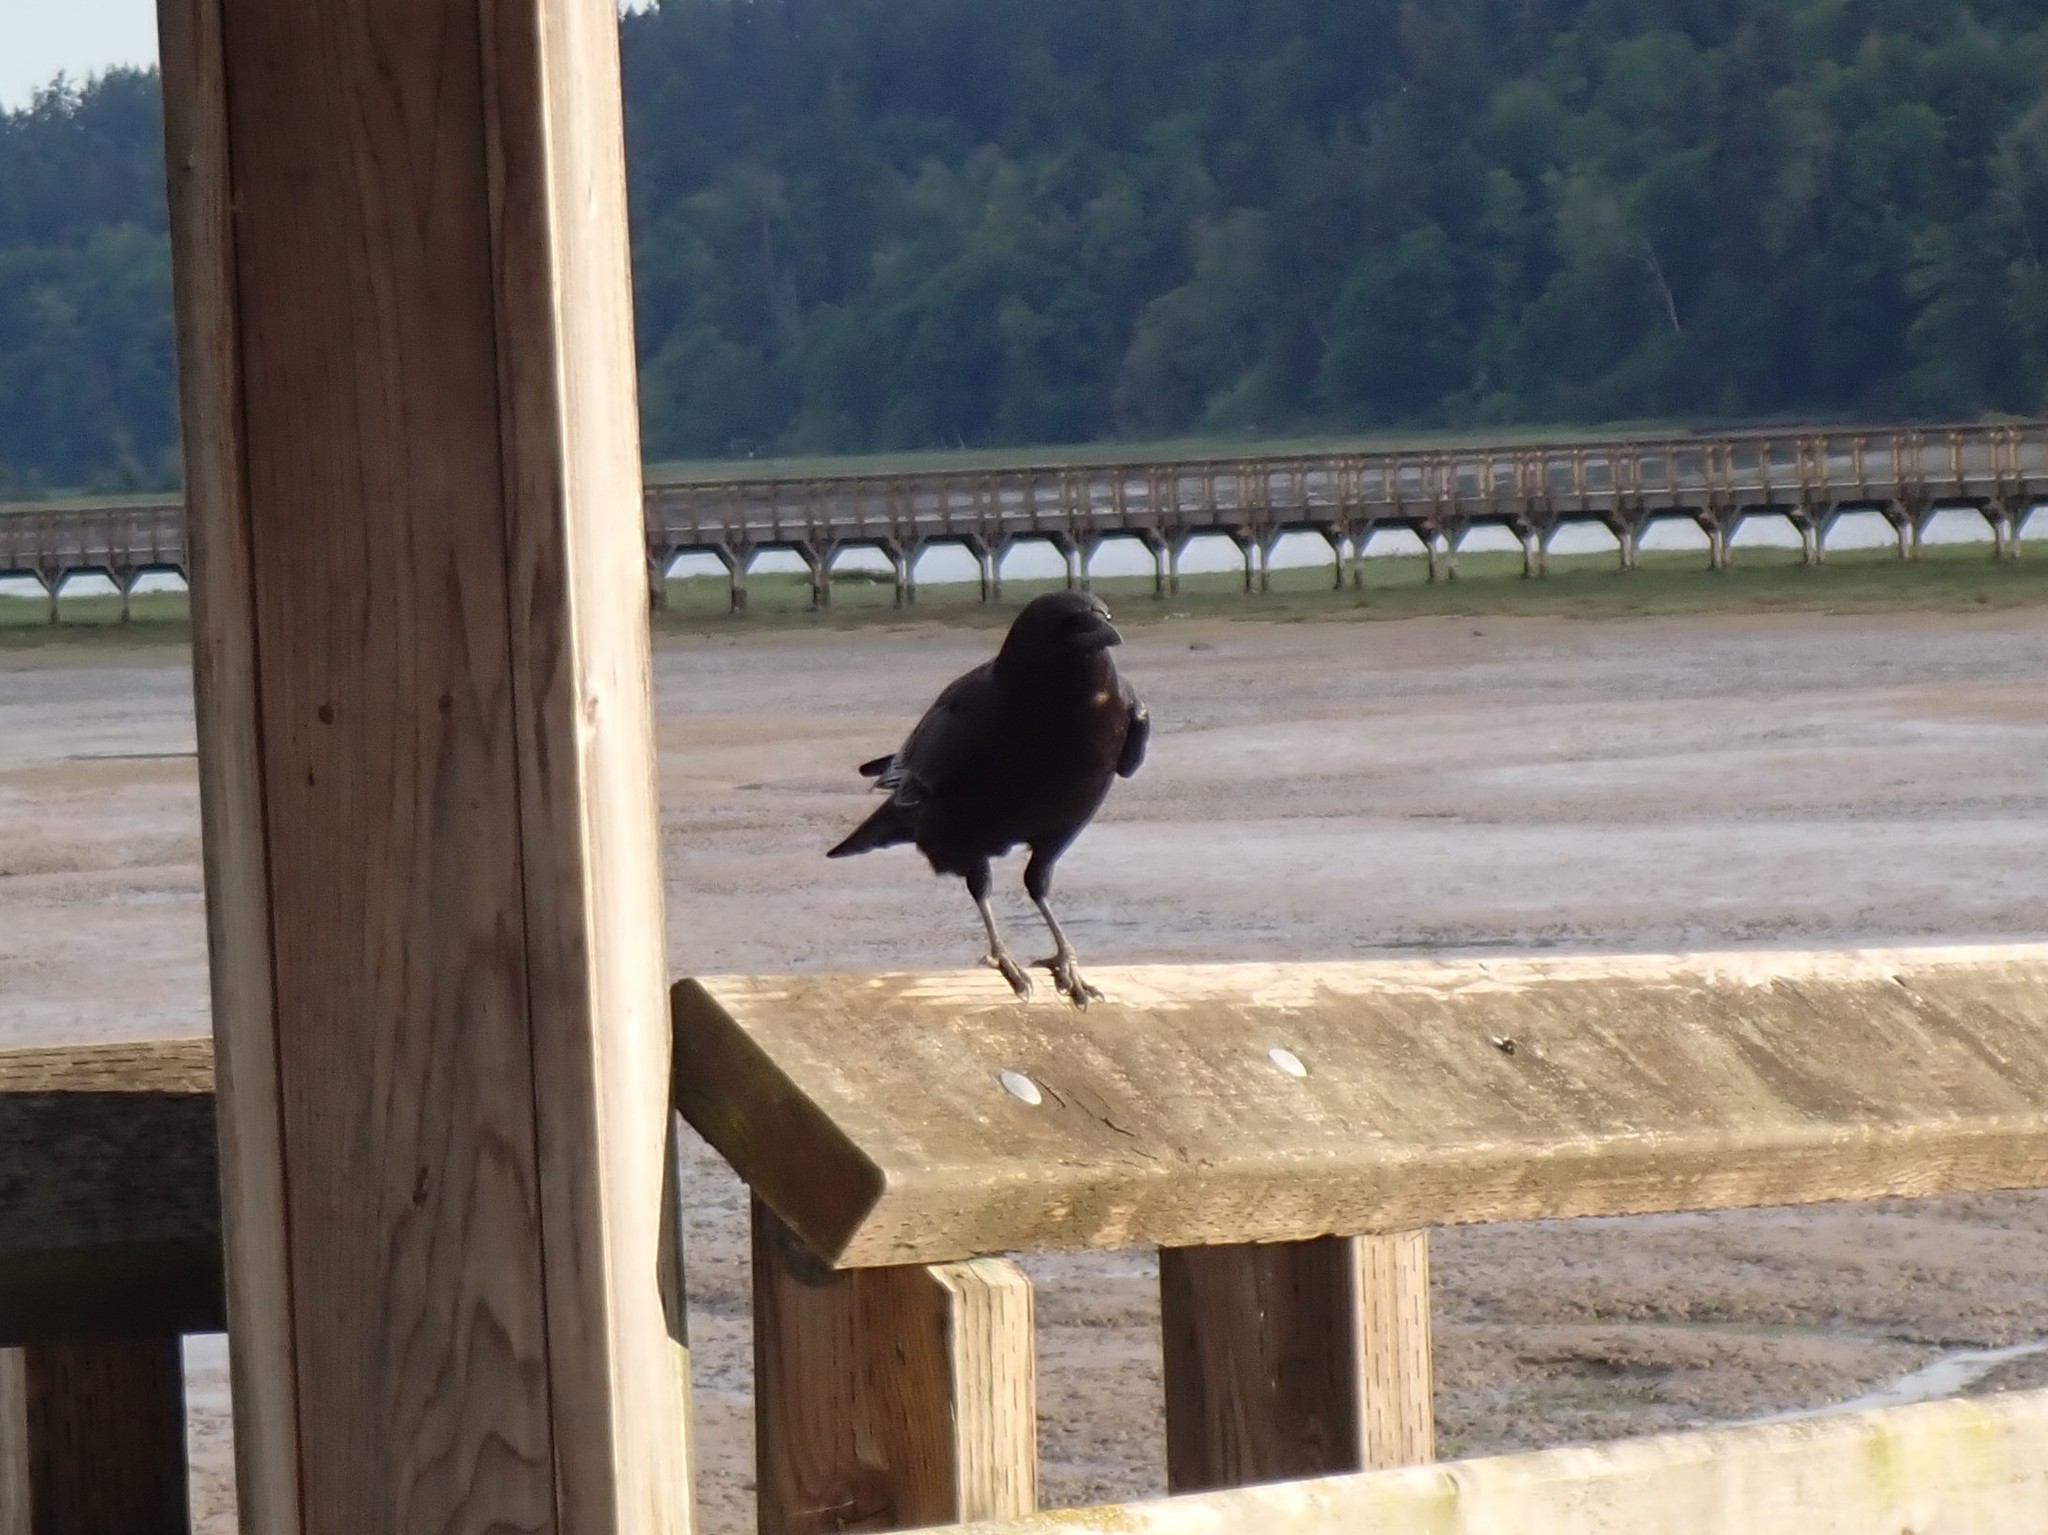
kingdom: Animalia
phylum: Chordata
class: Aves
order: Passeriformes
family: Corvidae
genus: Corvus
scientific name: Corvus brachyrhynchos
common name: American crow
